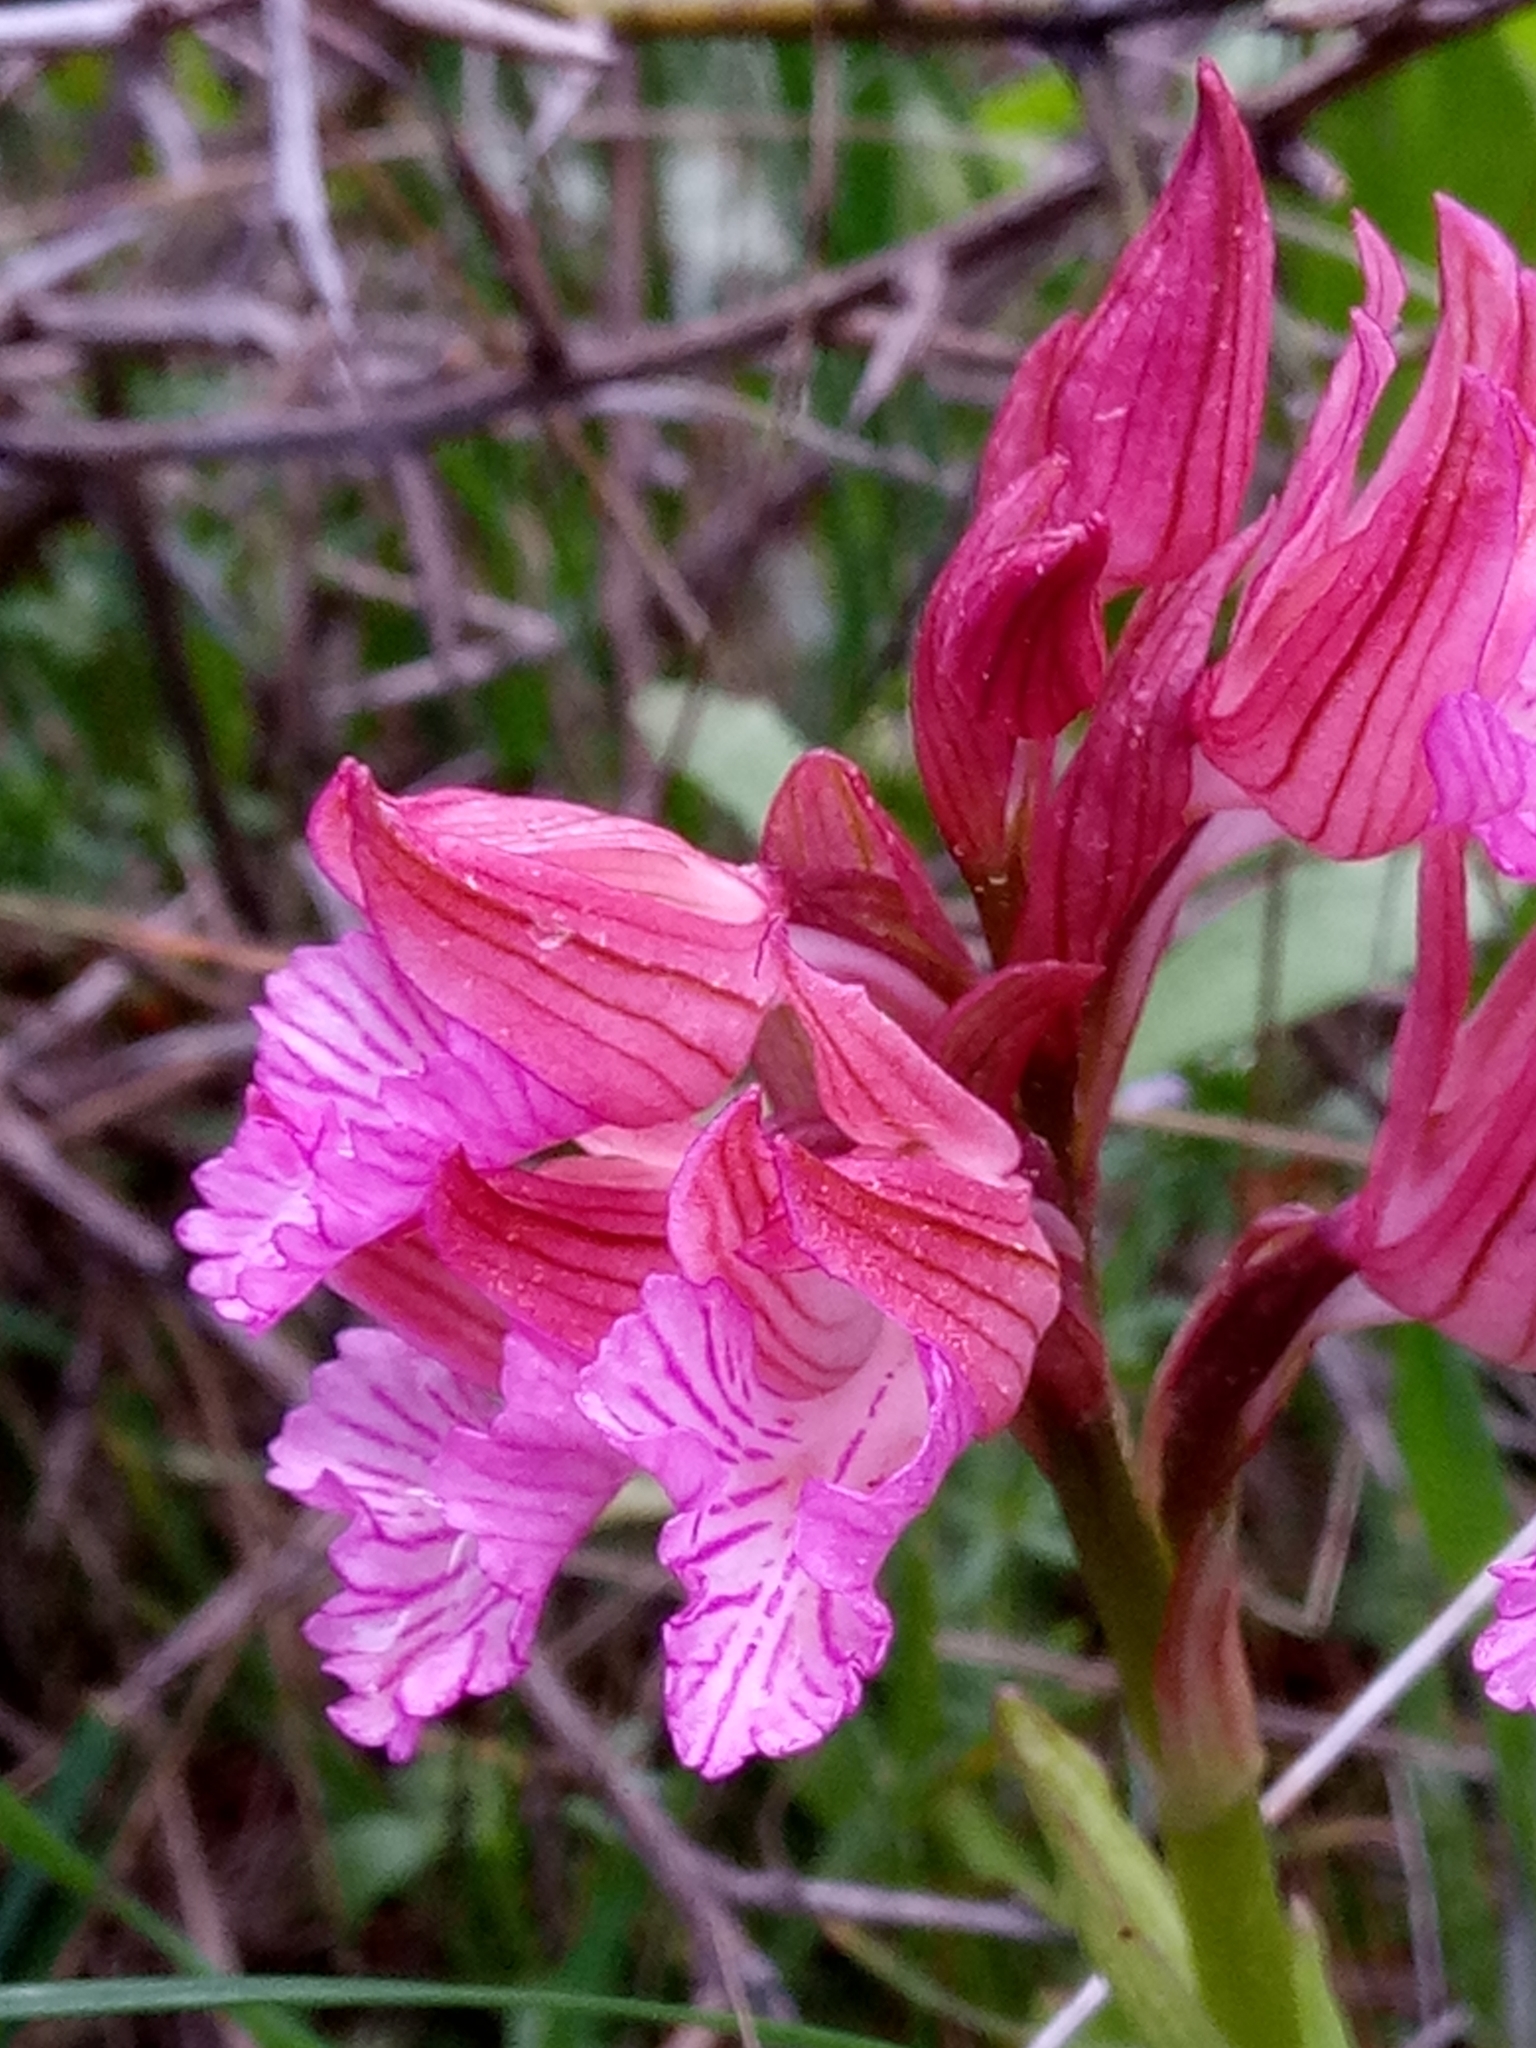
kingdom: Plantae
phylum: Tracheophyta
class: Liliopsida
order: Asparagales
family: Orchidaceae
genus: Anacamptis
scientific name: Anacamptis papilionacea
